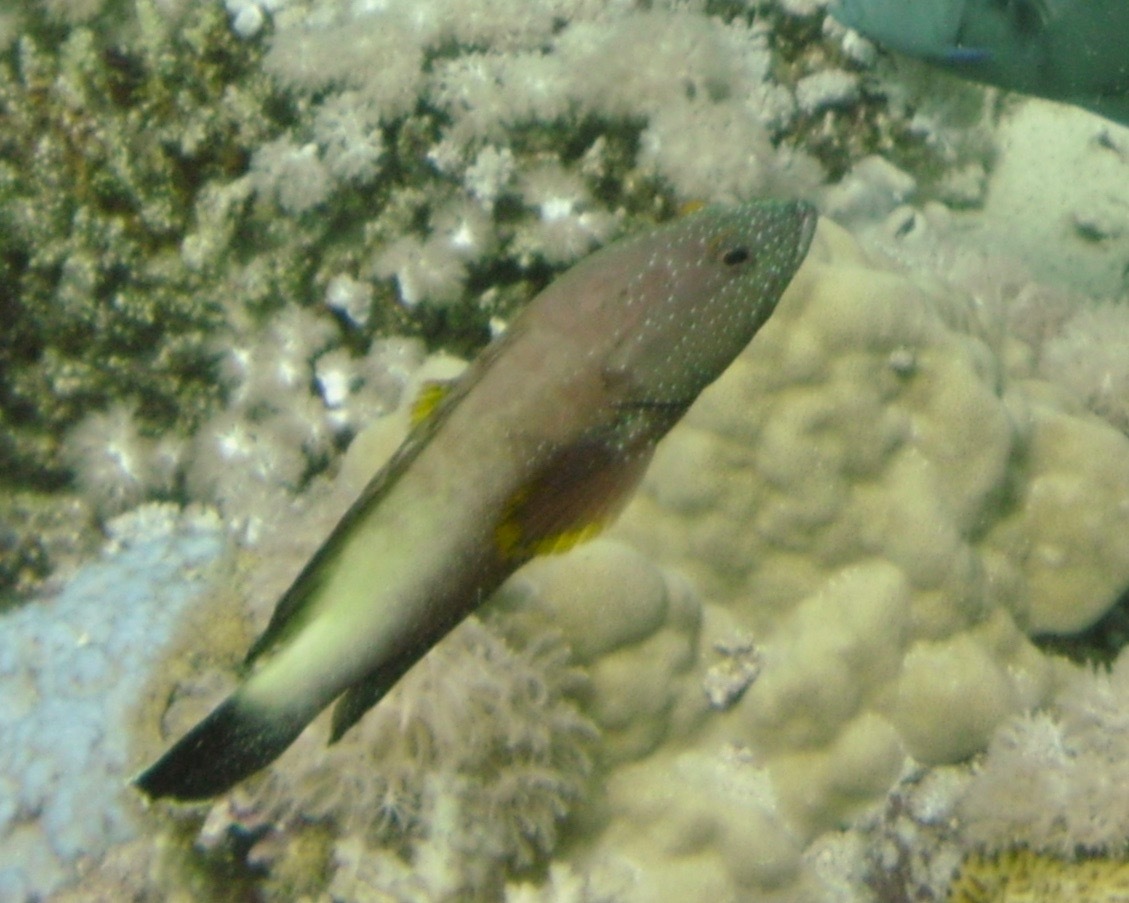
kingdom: Animalia
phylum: Chordata
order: Perciformes
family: Serranidae
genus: Cephalopholis
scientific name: Cephalopholis hemistiktos
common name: Halfspotted hind
